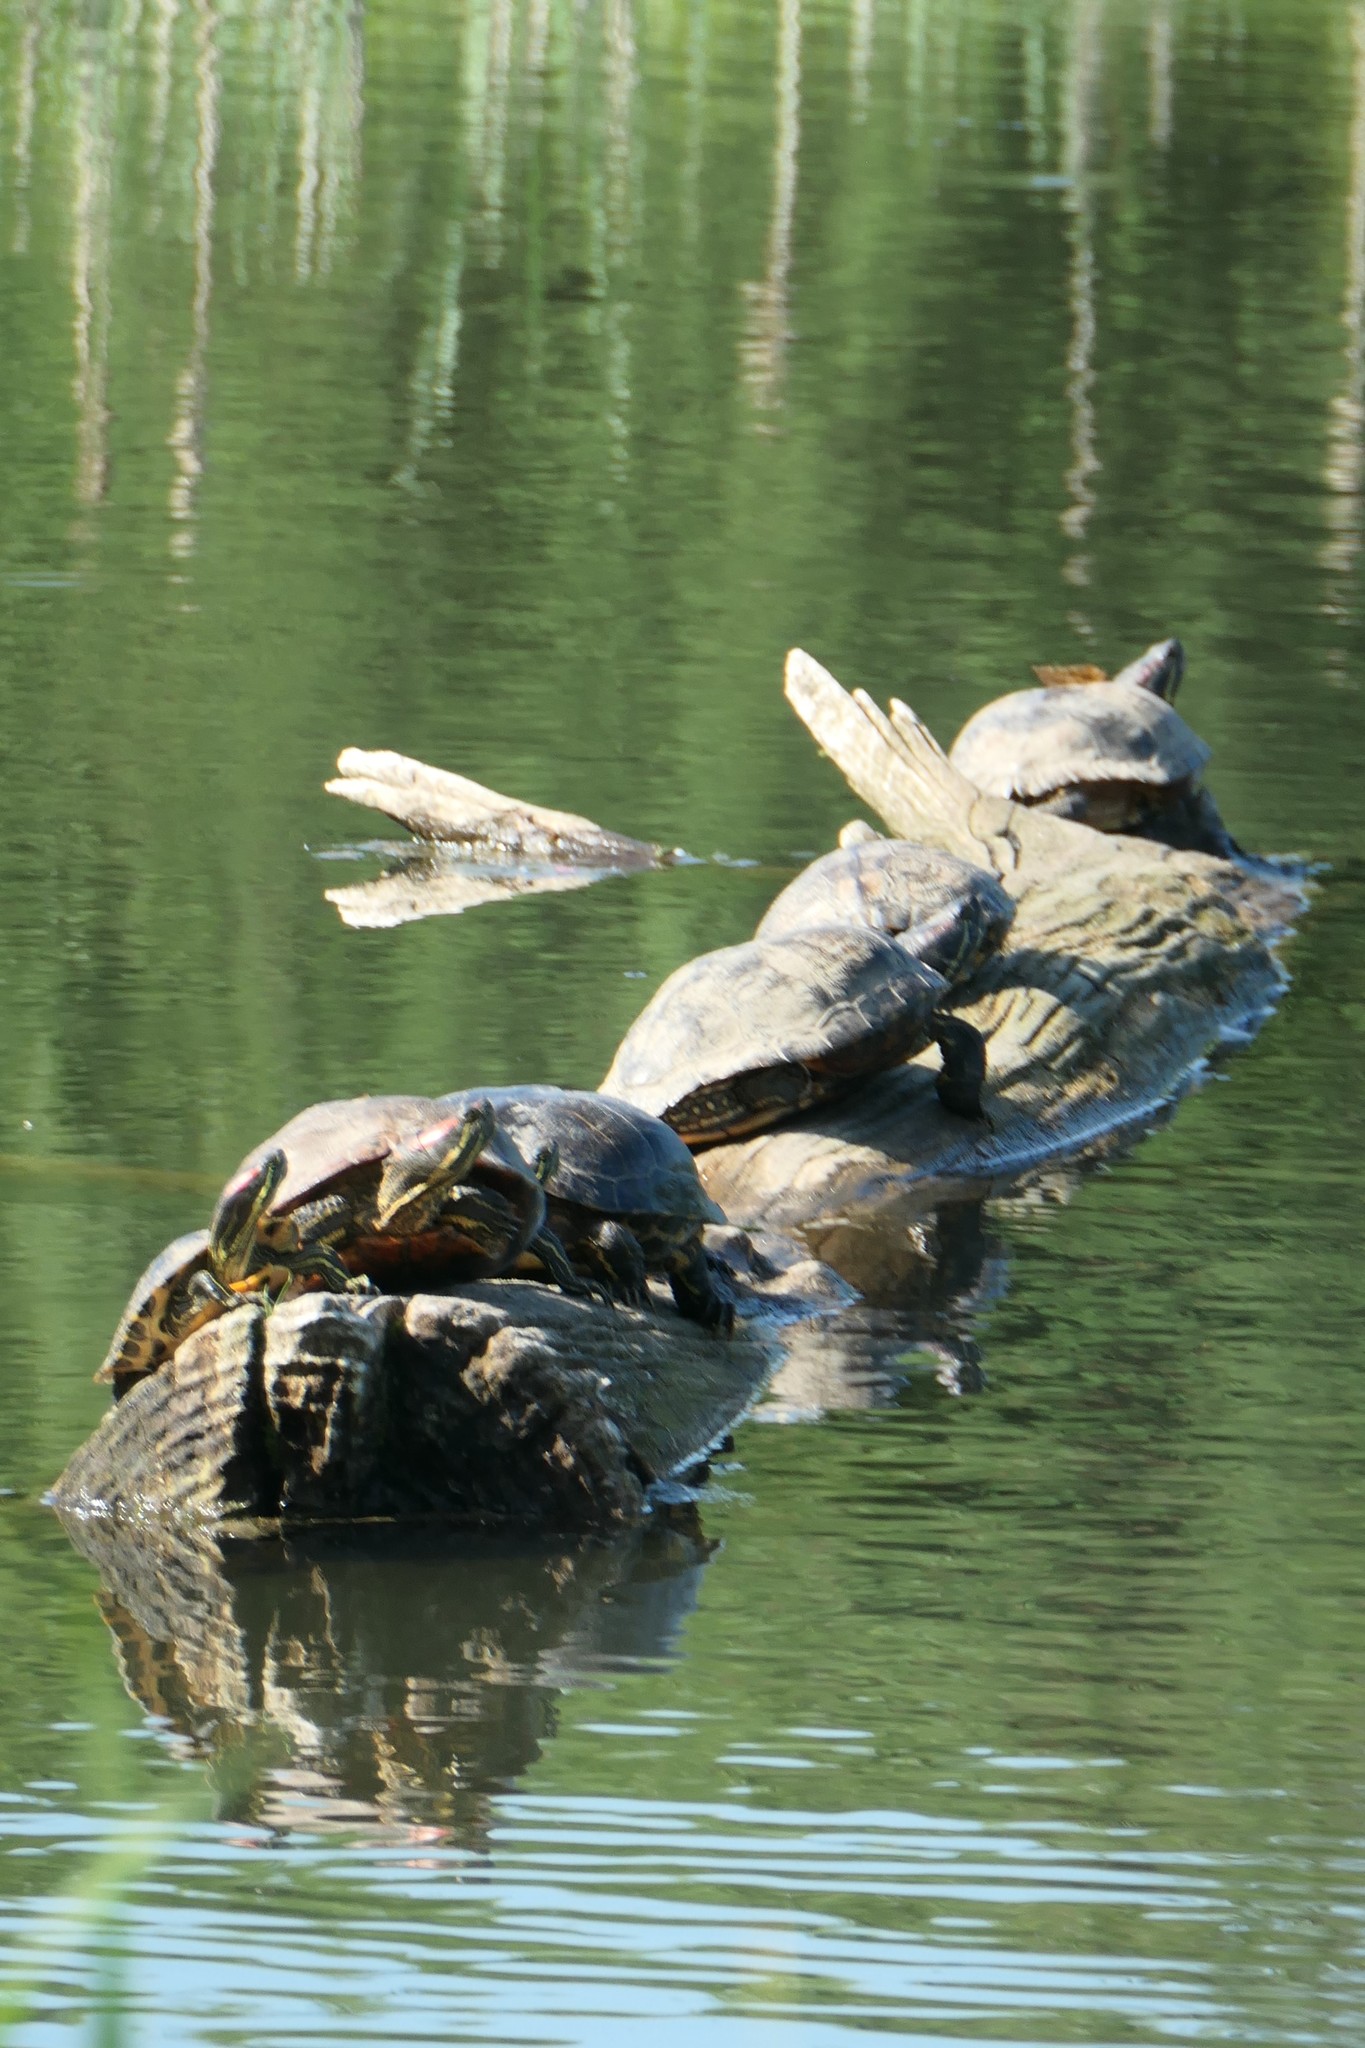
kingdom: Animalia
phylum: Chordata
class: Testudines
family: Emydidae
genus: Trachemys
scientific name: Trachemys scripta
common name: Slider
